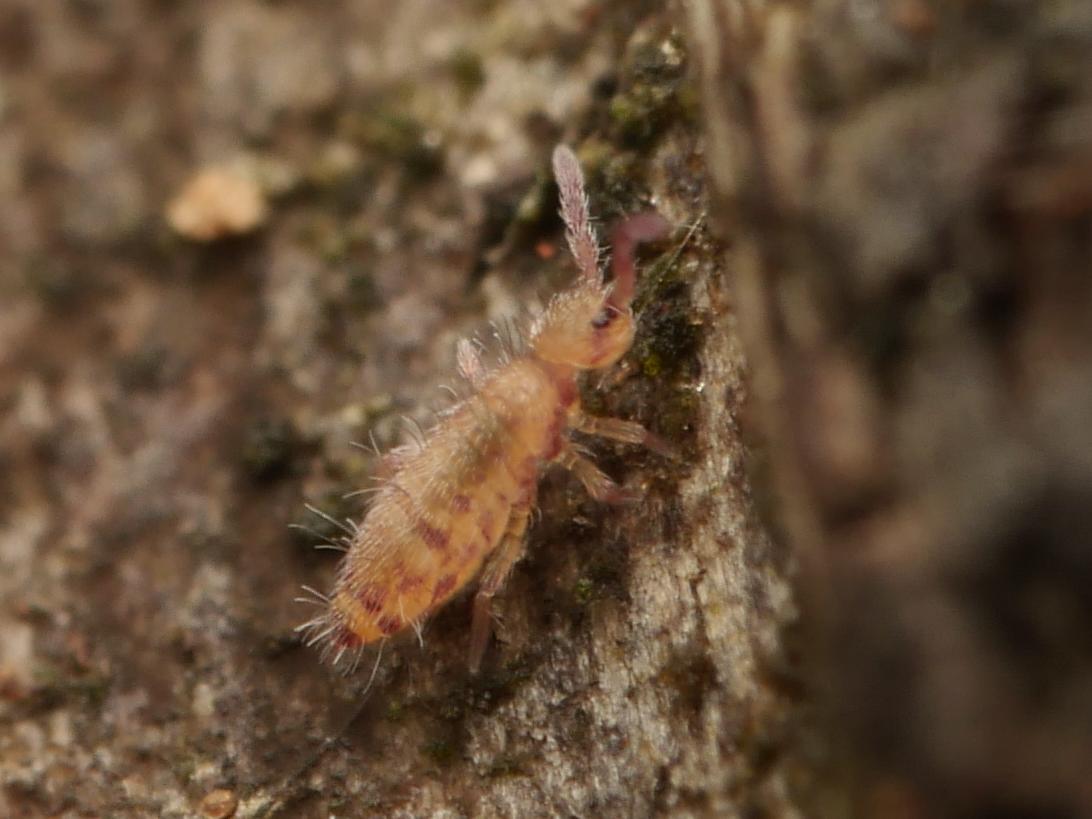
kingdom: Animalia
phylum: Arthropoda
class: Collembola
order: Entomobryomorpha
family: Entomobryidae
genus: Entomobrya
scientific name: Entomobrya multifasciata
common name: Springtail
